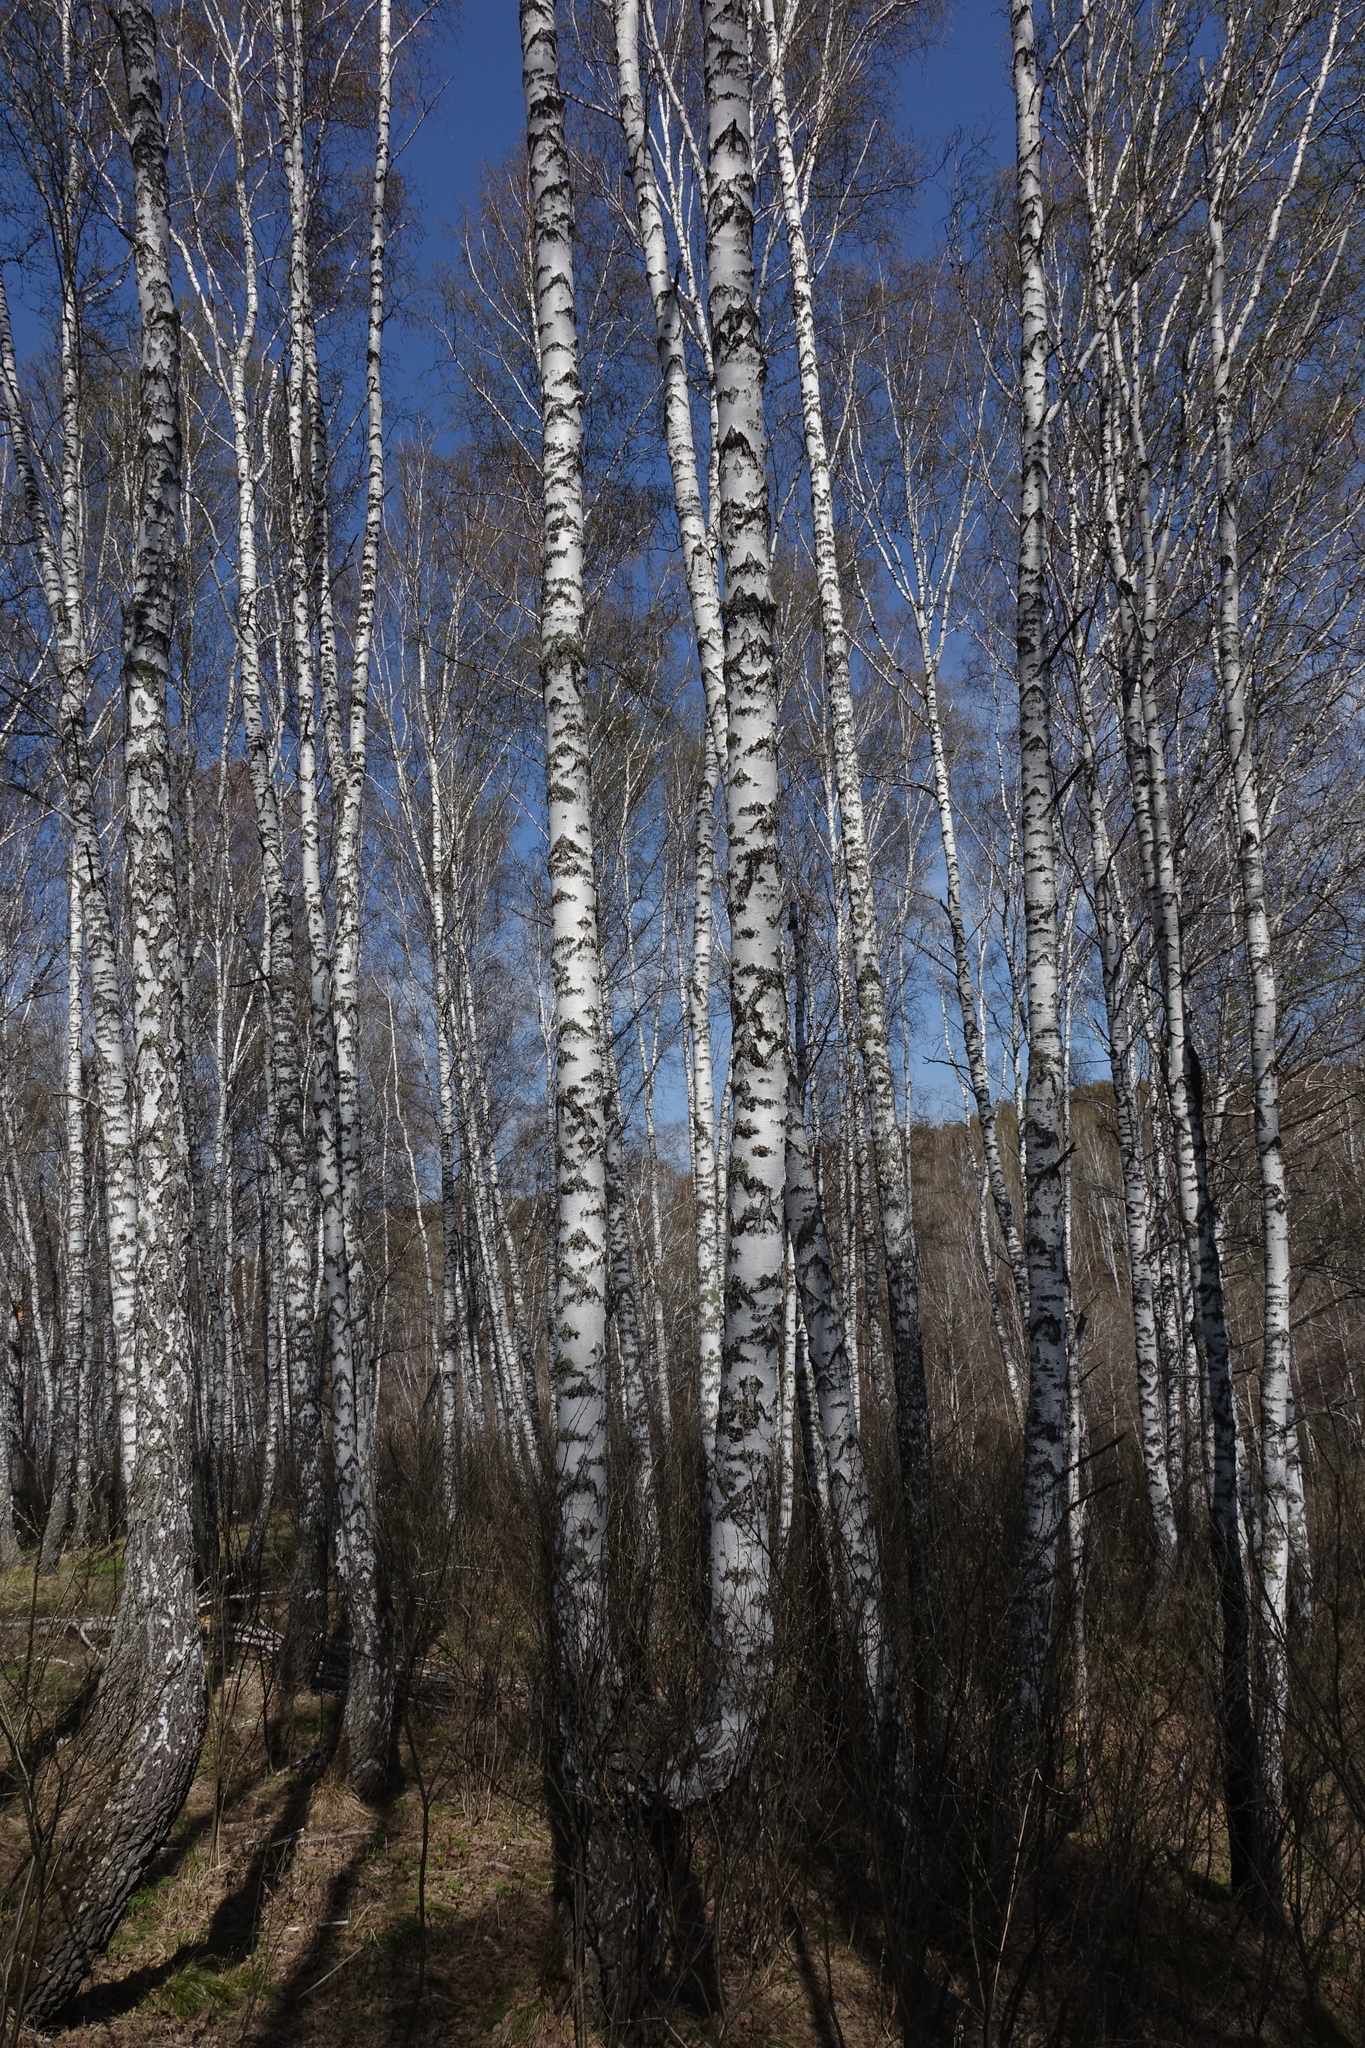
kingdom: Plantae
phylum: Tracheophyta
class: Magnoliopsida
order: Fagales
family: Betulaceae
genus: Betula
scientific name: Betula pendula
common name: Silver birch
